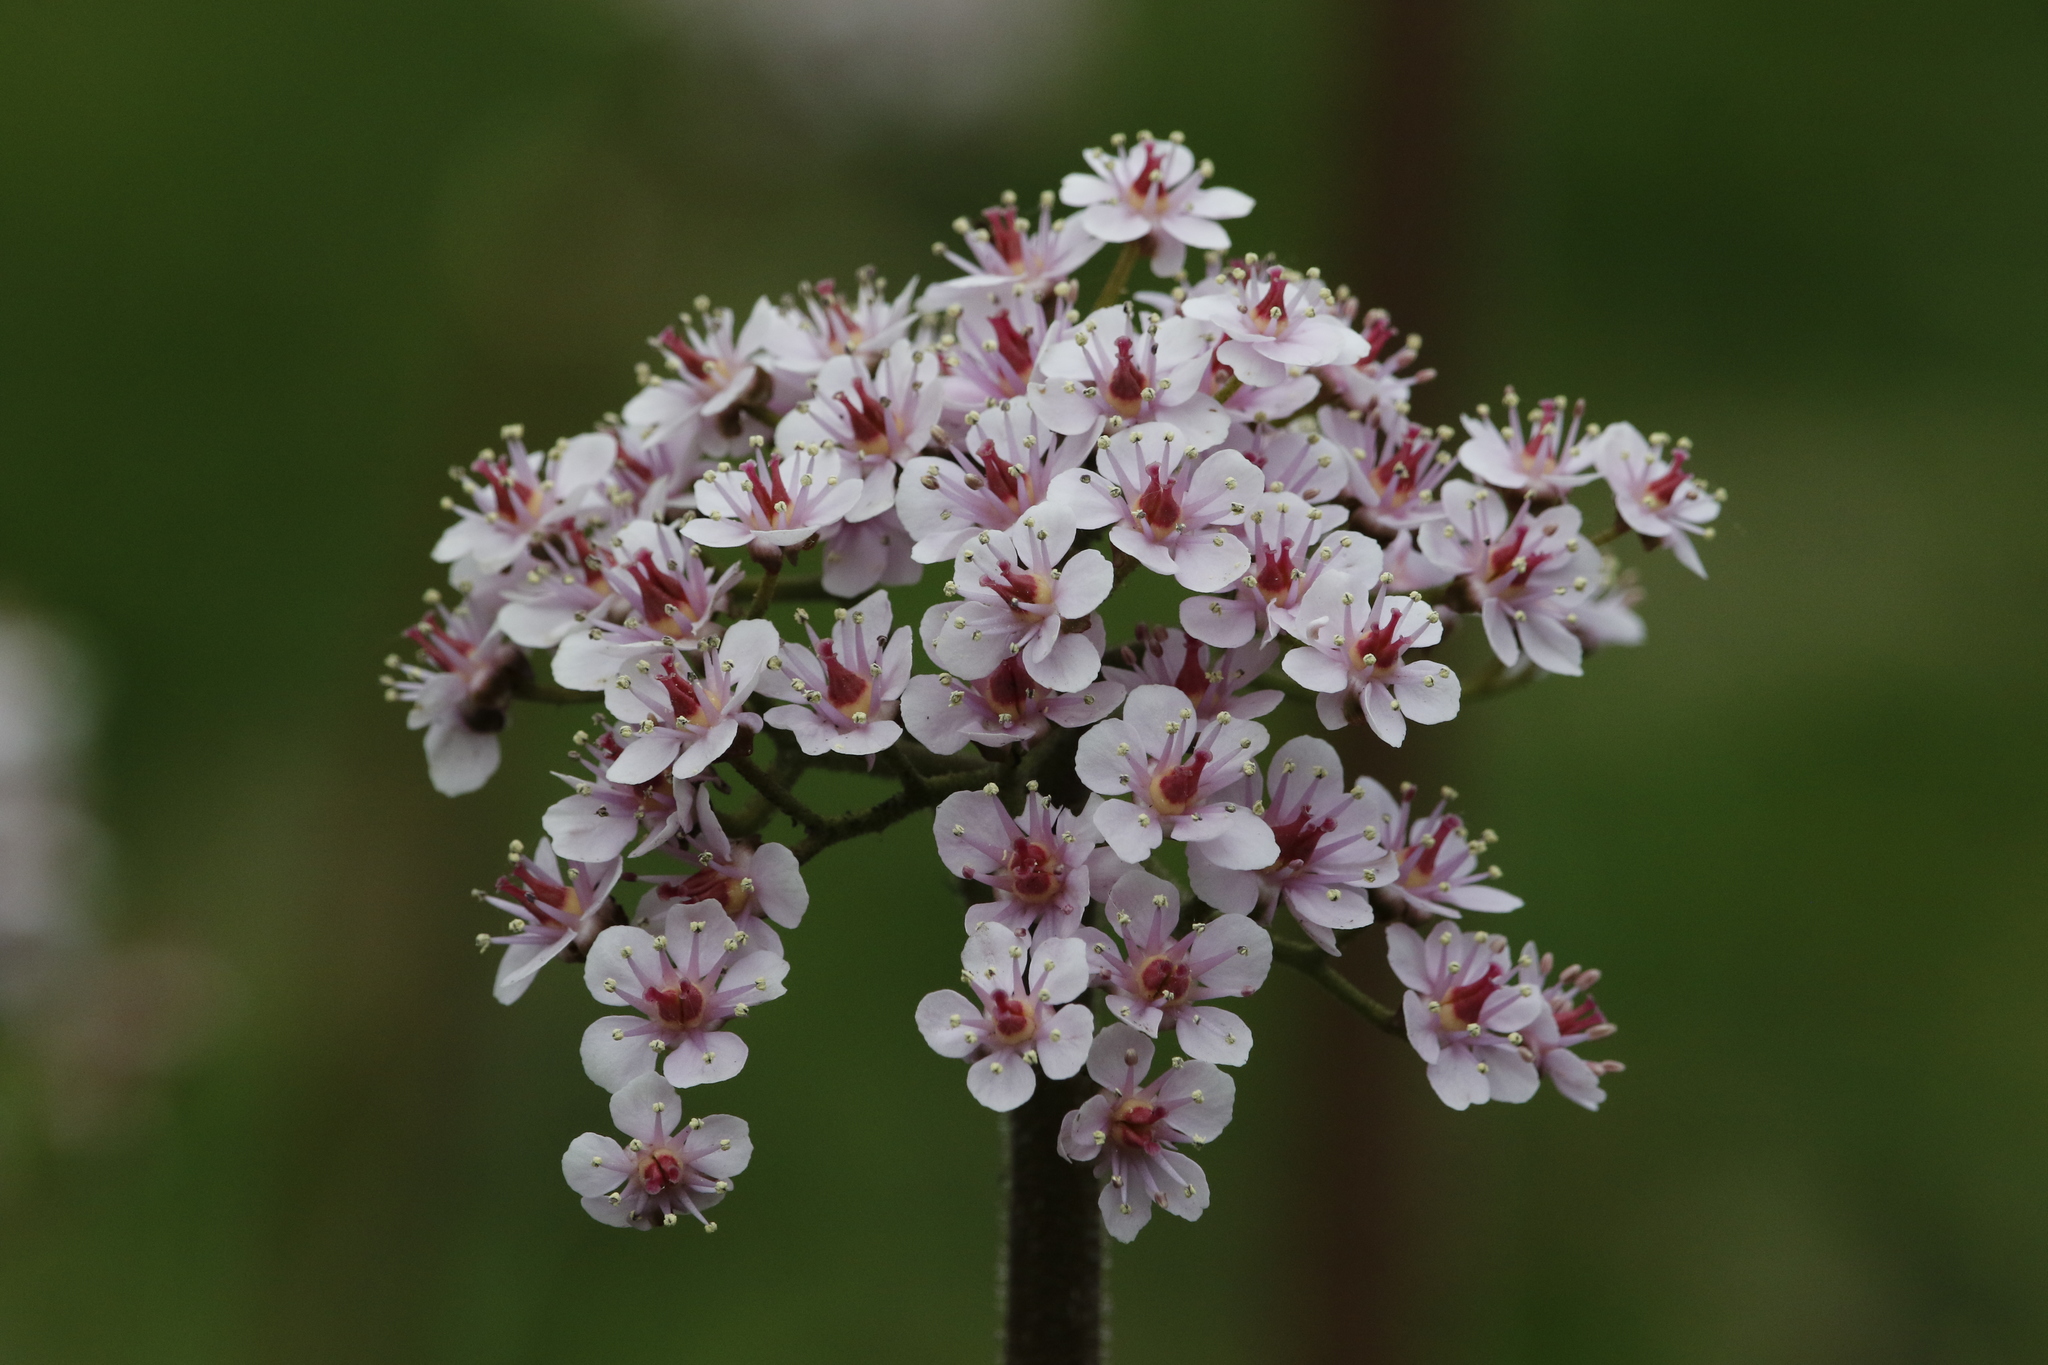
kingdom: Plantae
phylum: Tracheophyta
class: Magnoliopsida
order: Saxifragales
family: Saxifragaceae
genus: Darmera
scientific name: Darmera peltata
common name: Indian-rhubarb
